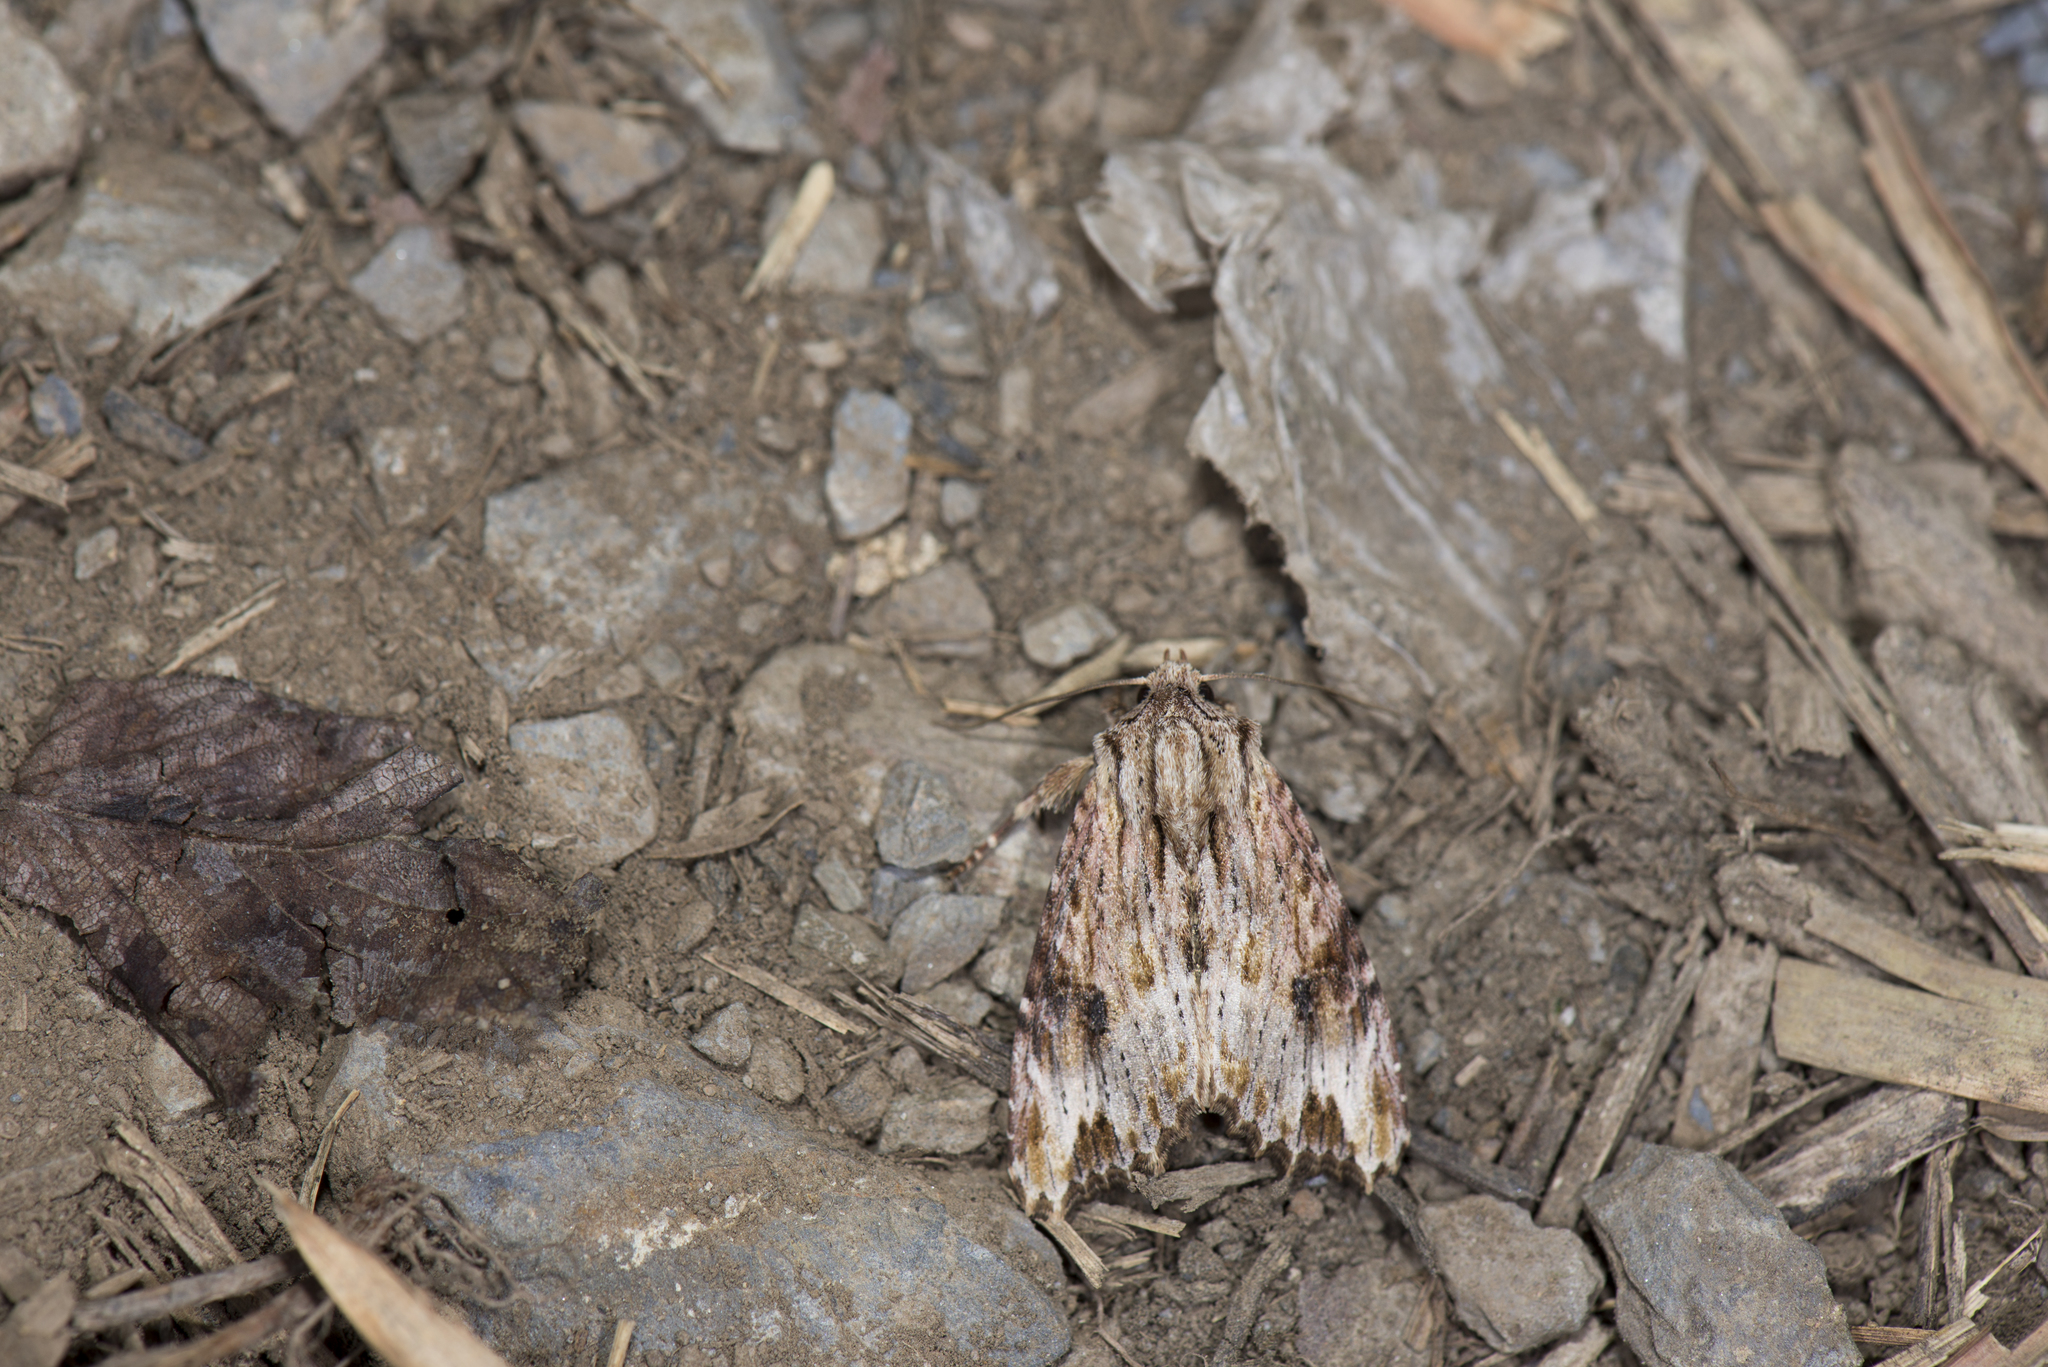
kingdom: Animalia
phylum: Arthropoda
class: Insecta
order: Lepidoptera
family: Noctuidae
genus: Nepalopolia
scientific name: Nepalopolia contaminata
